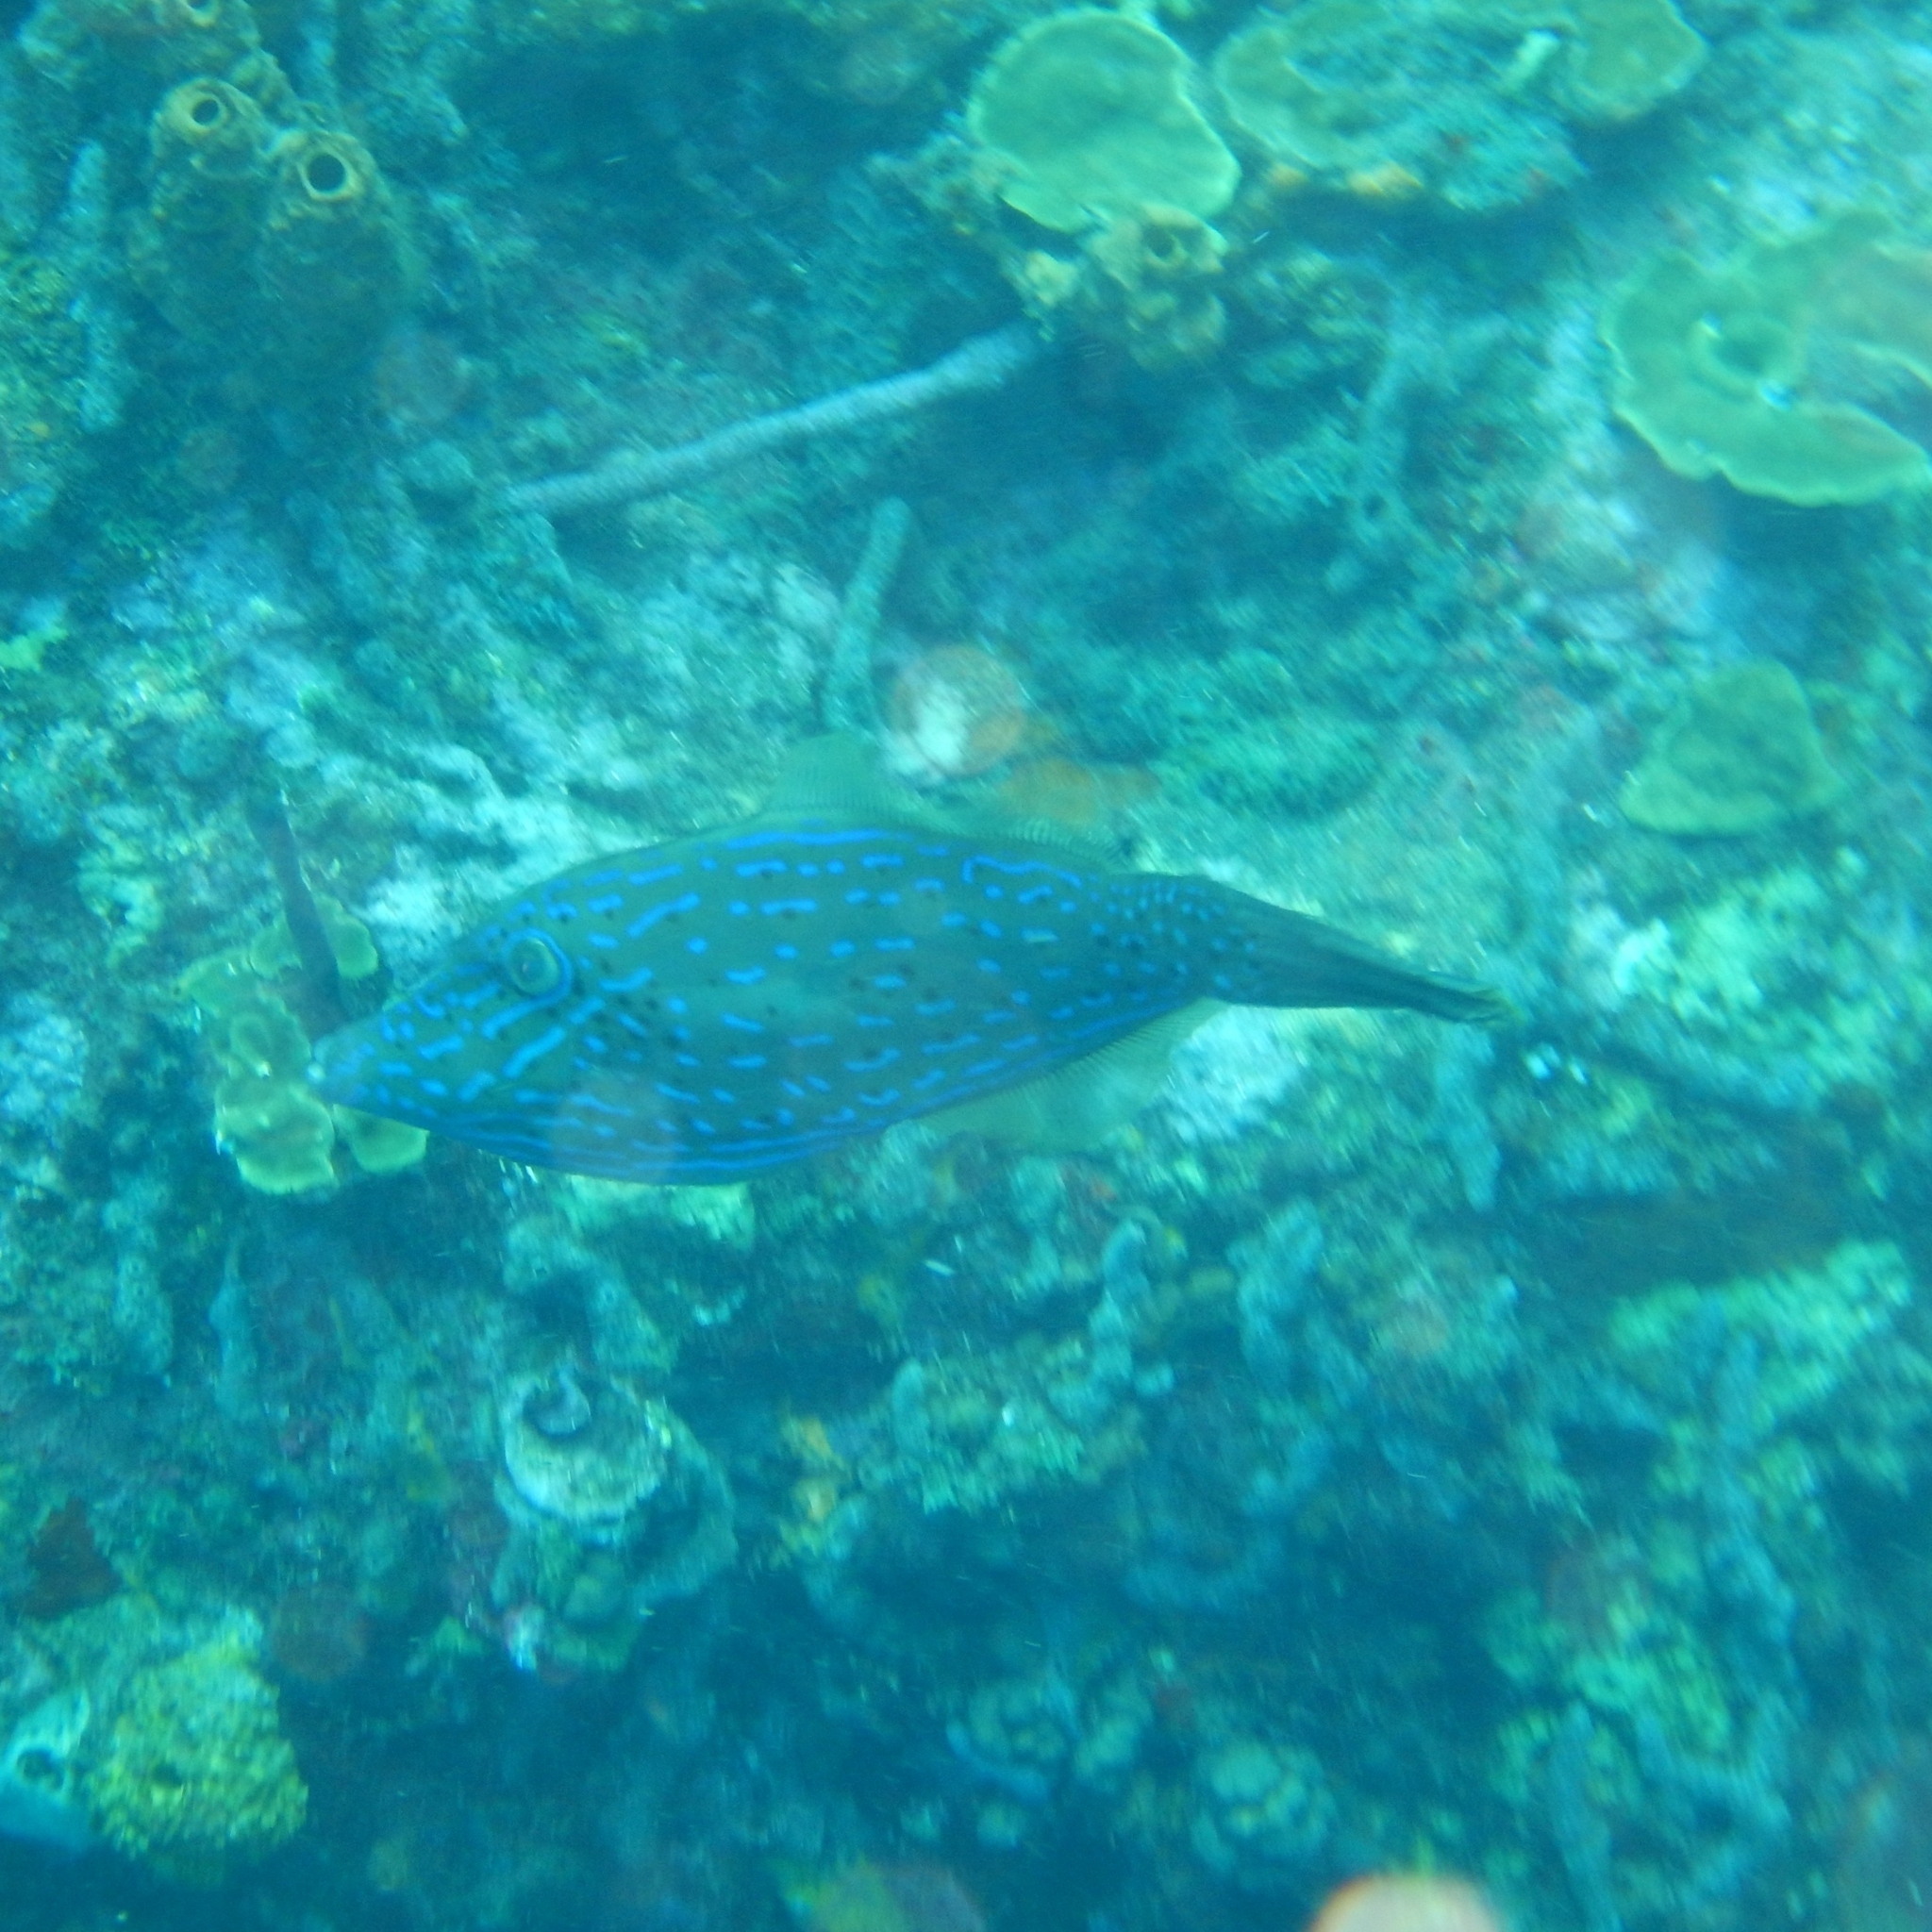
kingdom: Animalia
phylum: Chordata
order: Tetraodontiformes
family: Monacanthidae
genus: Aluterus
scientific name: Aluterus scriptus
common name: Scribbled leatherjacket filefish
